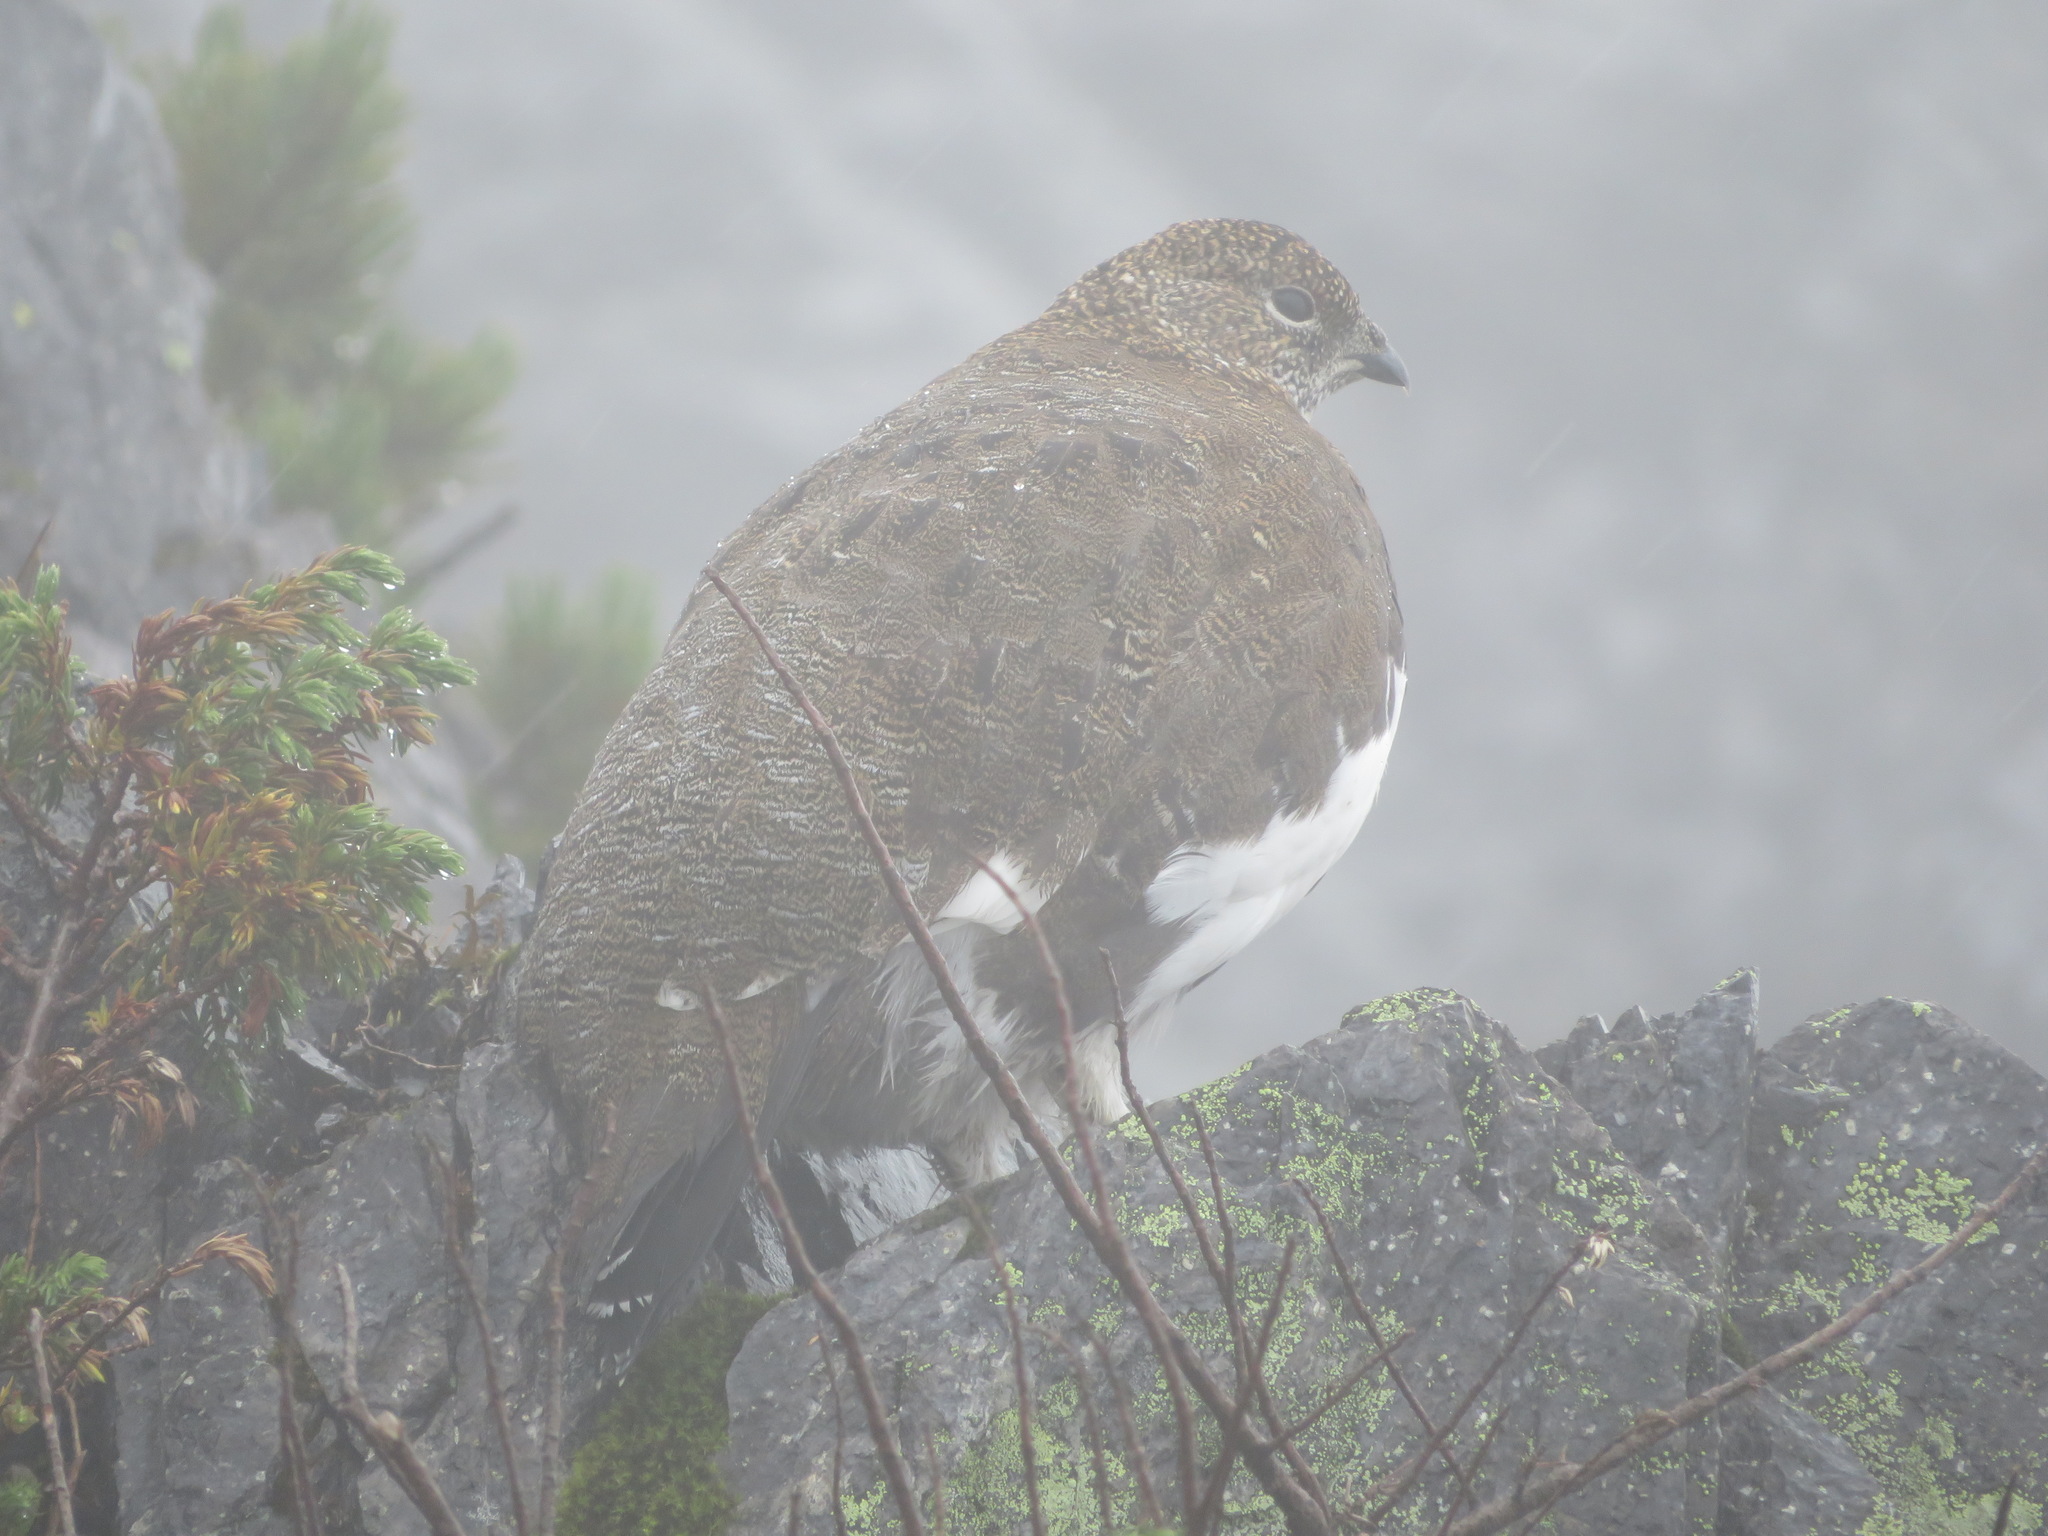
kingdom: Animalia
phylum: Chordata
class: Aves
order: Galliformes
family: Phasianidae
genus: Lagopus
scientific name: Lagopus muta
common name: Rock ptarmigan
